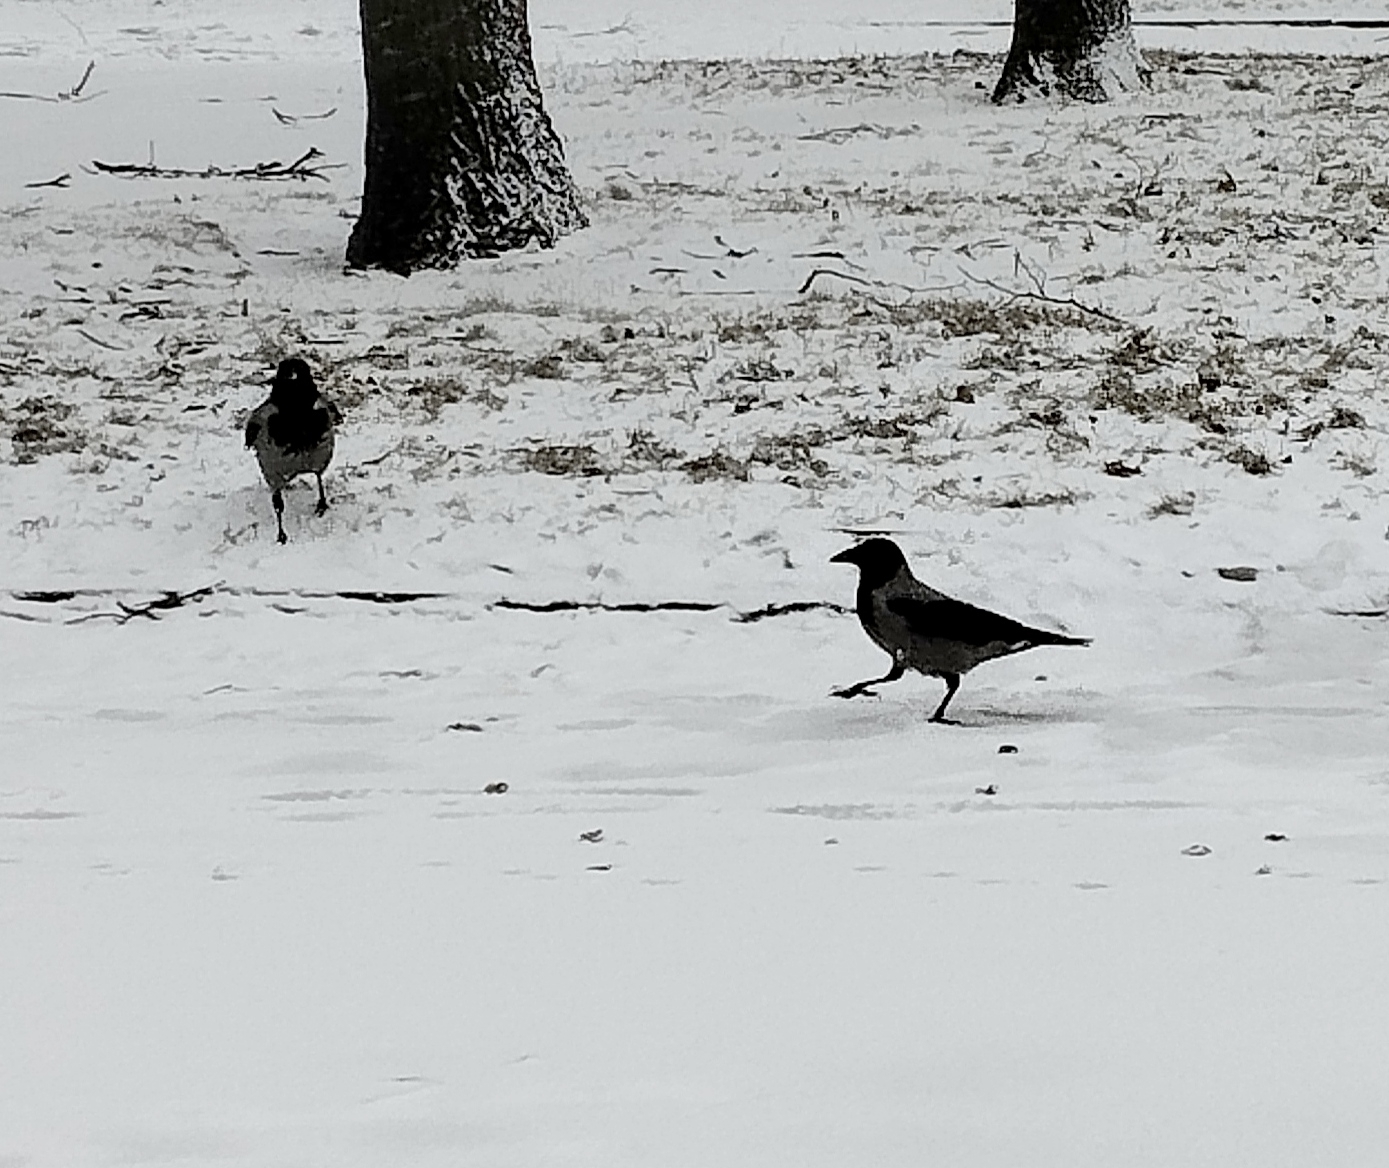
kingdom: Animalia
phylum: Chordata
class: Aves
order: Passeriformes
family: Corvidae
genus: Corvus
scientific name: Corvus cornix
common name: Hooded crow
